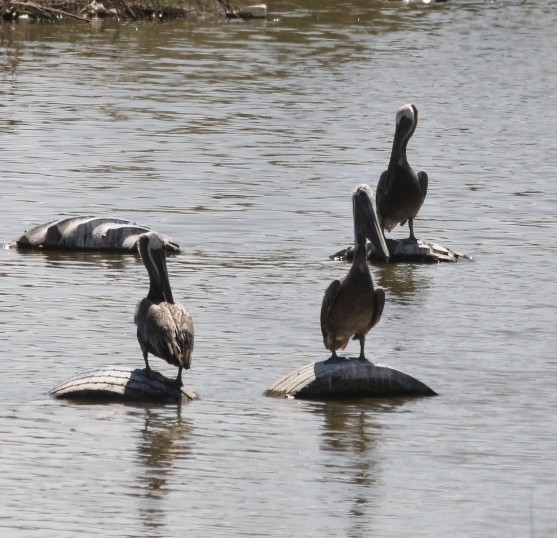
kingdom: Animalia
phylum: Chordata
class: Aves
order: Pelecaniformes
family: Pelecanidae
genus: Pelecanus
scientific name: Pelecanus occidentalis
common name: Brown pelican
